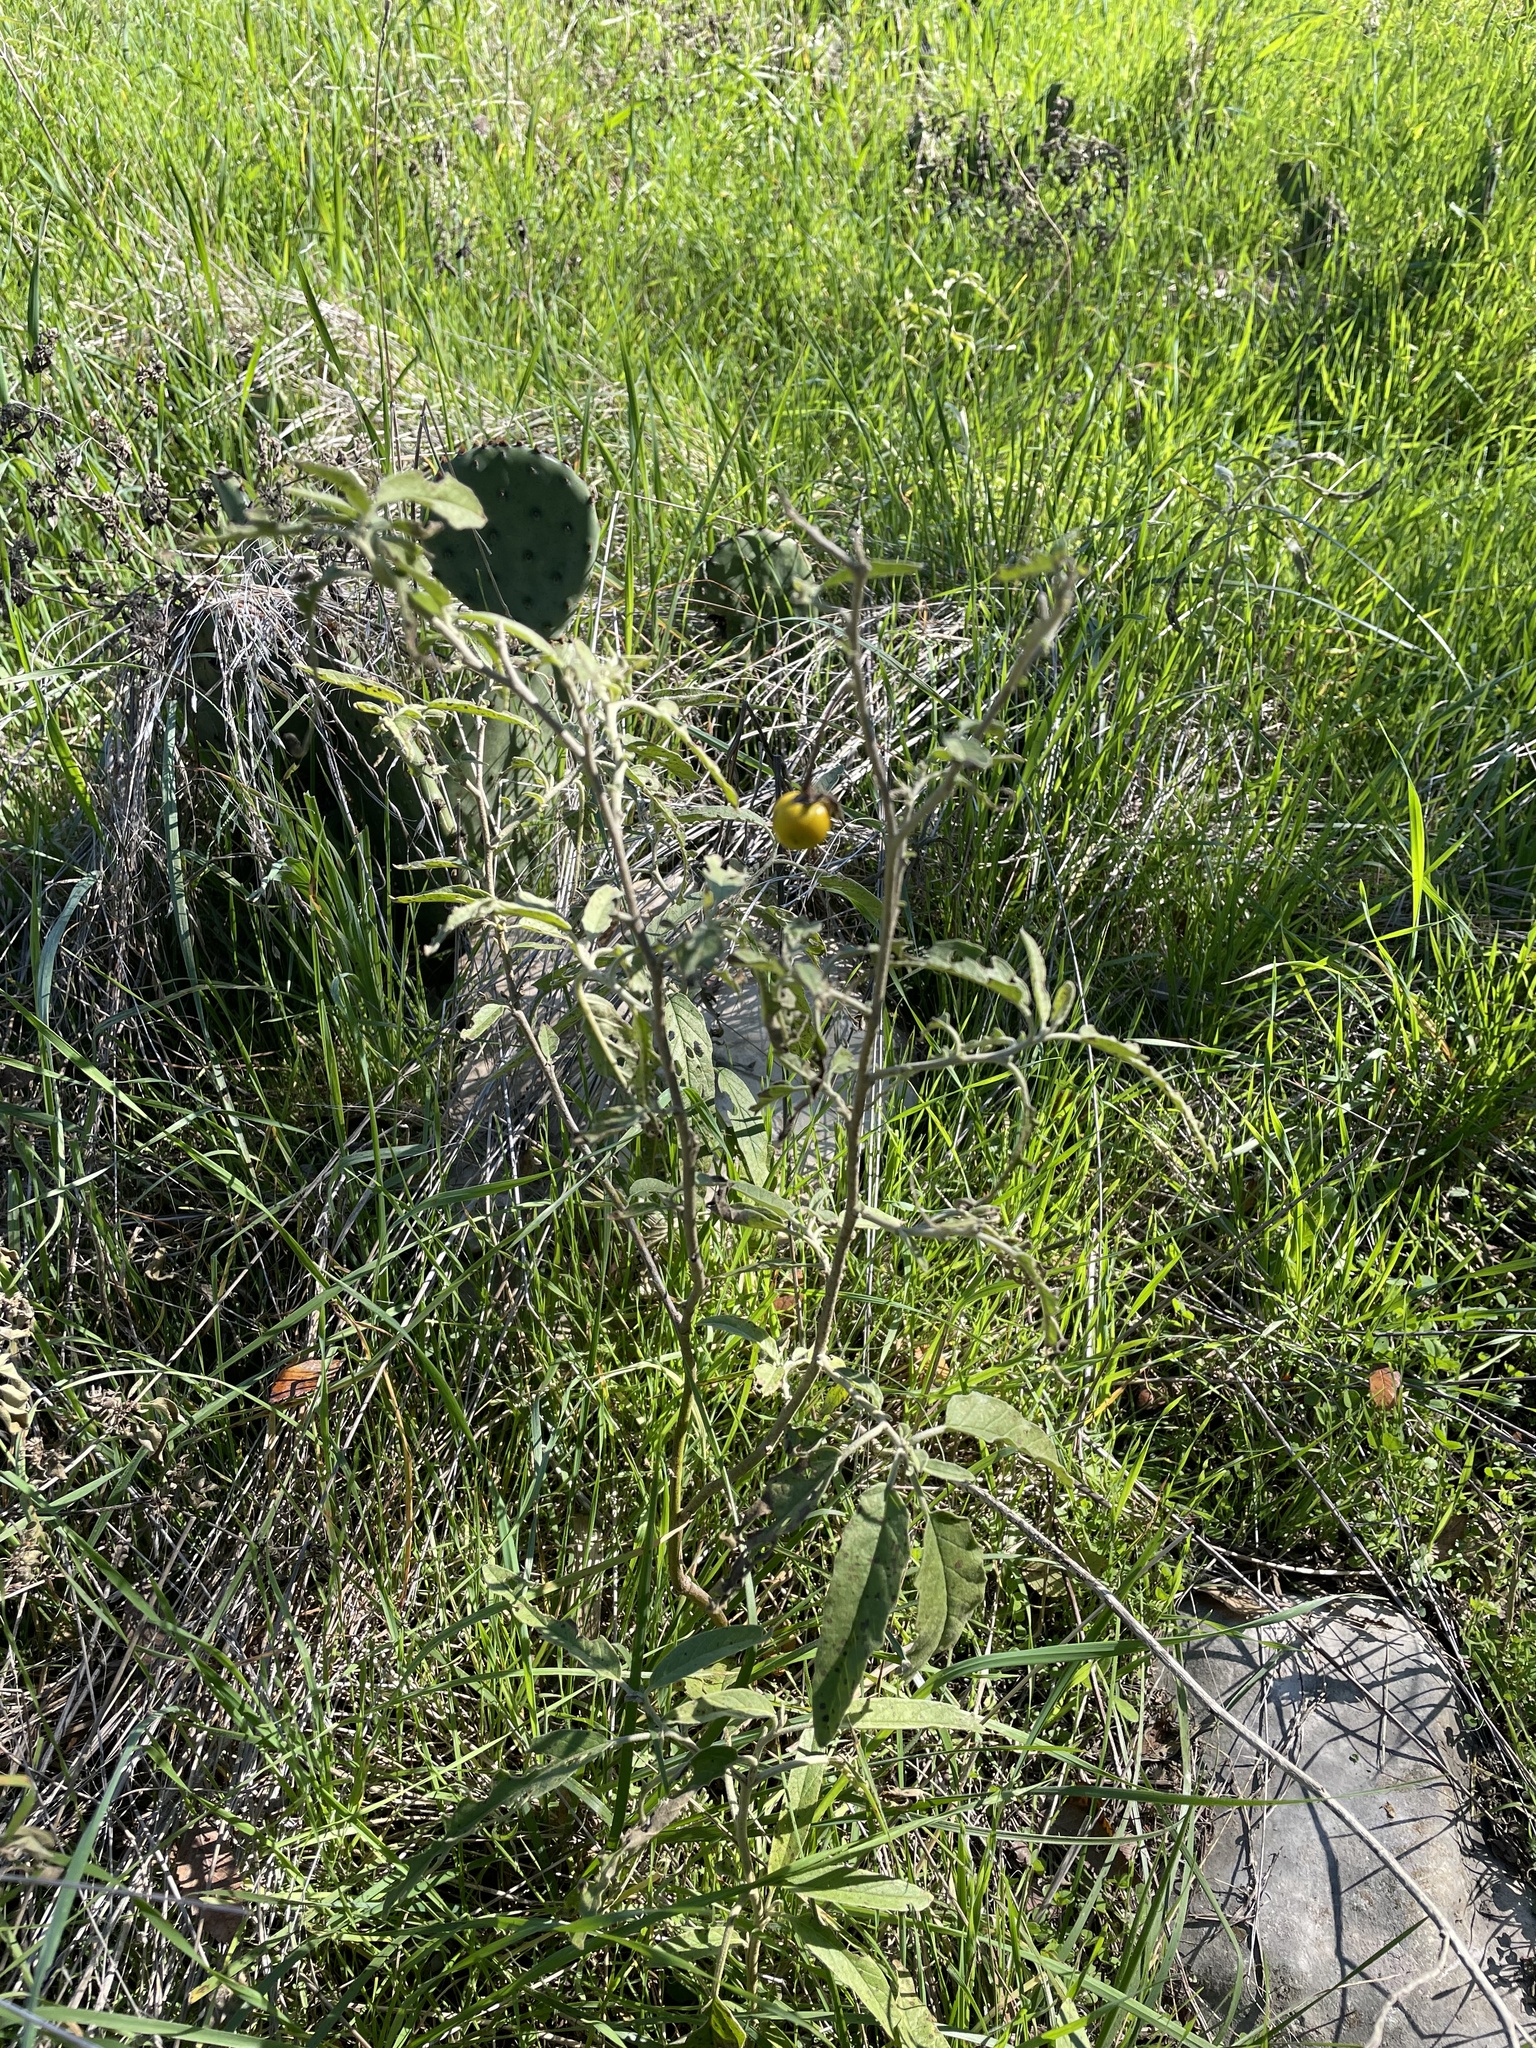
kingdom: Plantae
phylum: Tracheophyta
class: Magnoliopsida
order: Solanales
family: Solanaceae
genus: Solanum
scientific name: Solanum elaeagnifolium
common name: Silverleaf nightshade
